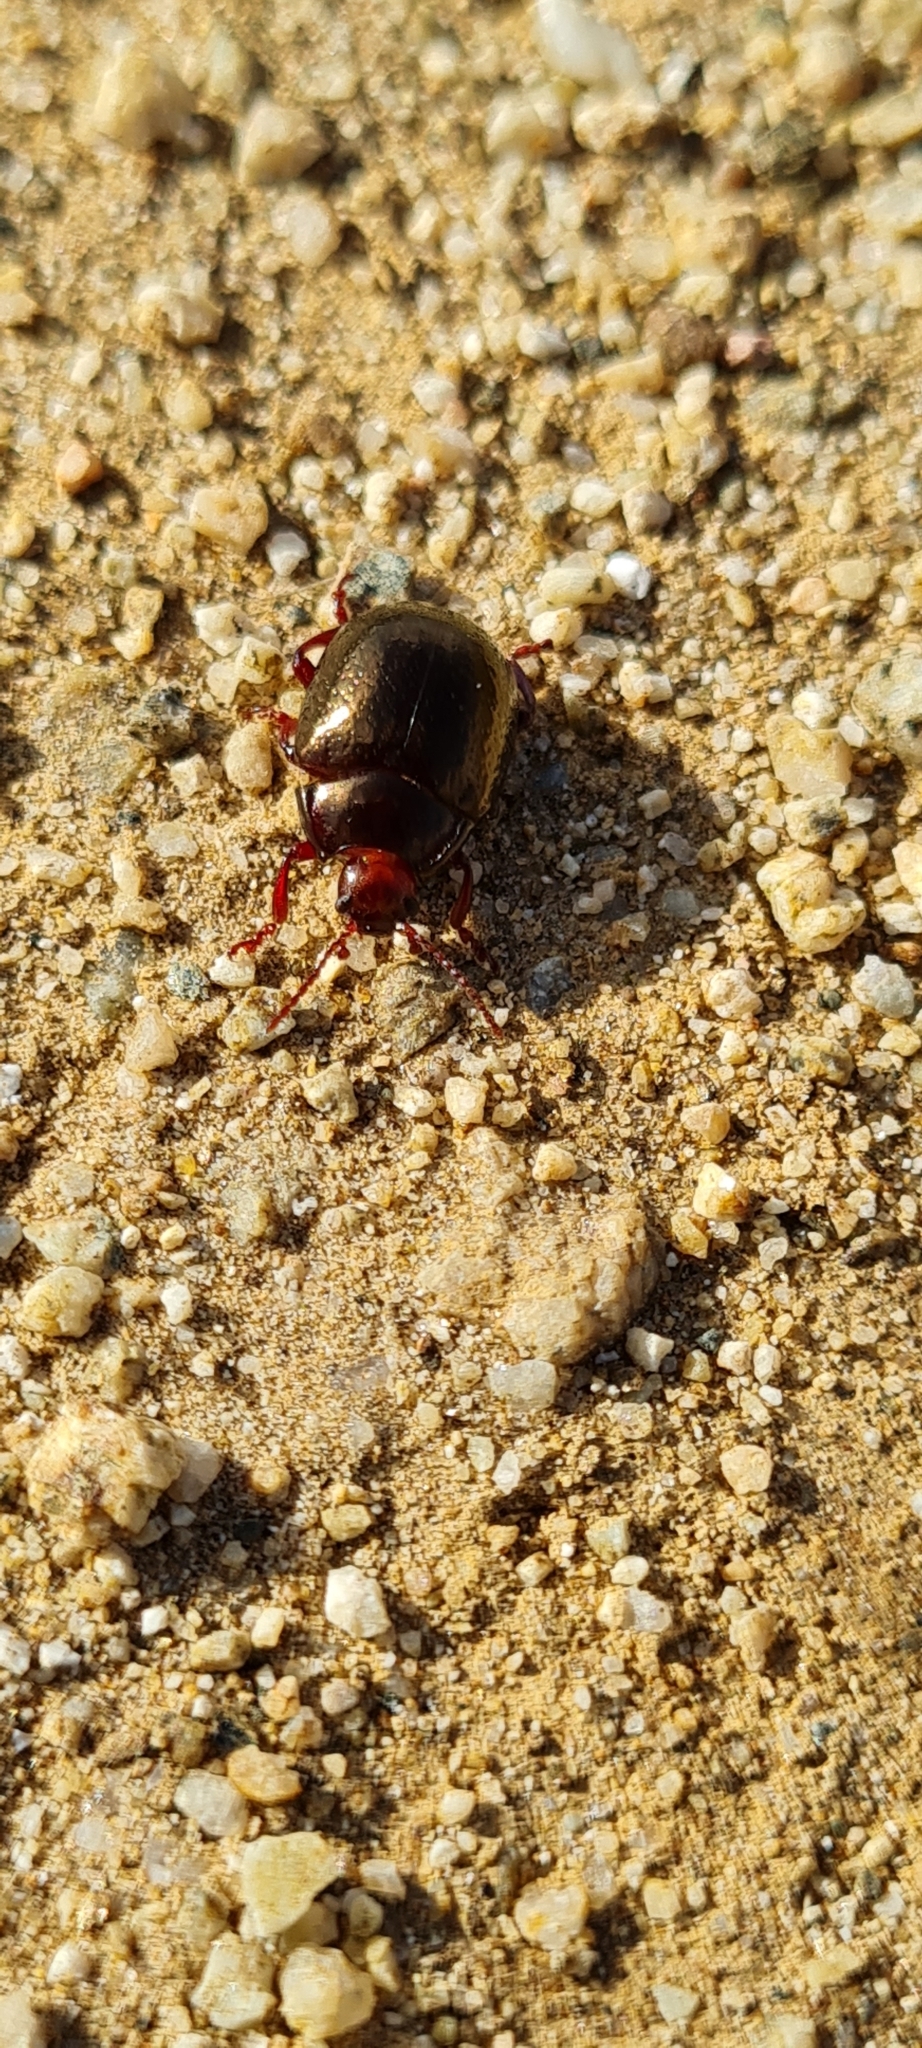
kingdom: Animalia
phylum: Arthropoda
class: Insecta
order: Coleoptera
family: Chrysomelidae
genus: Chrysolina
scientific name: Chrysolina bankii
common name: Leaf beetle
